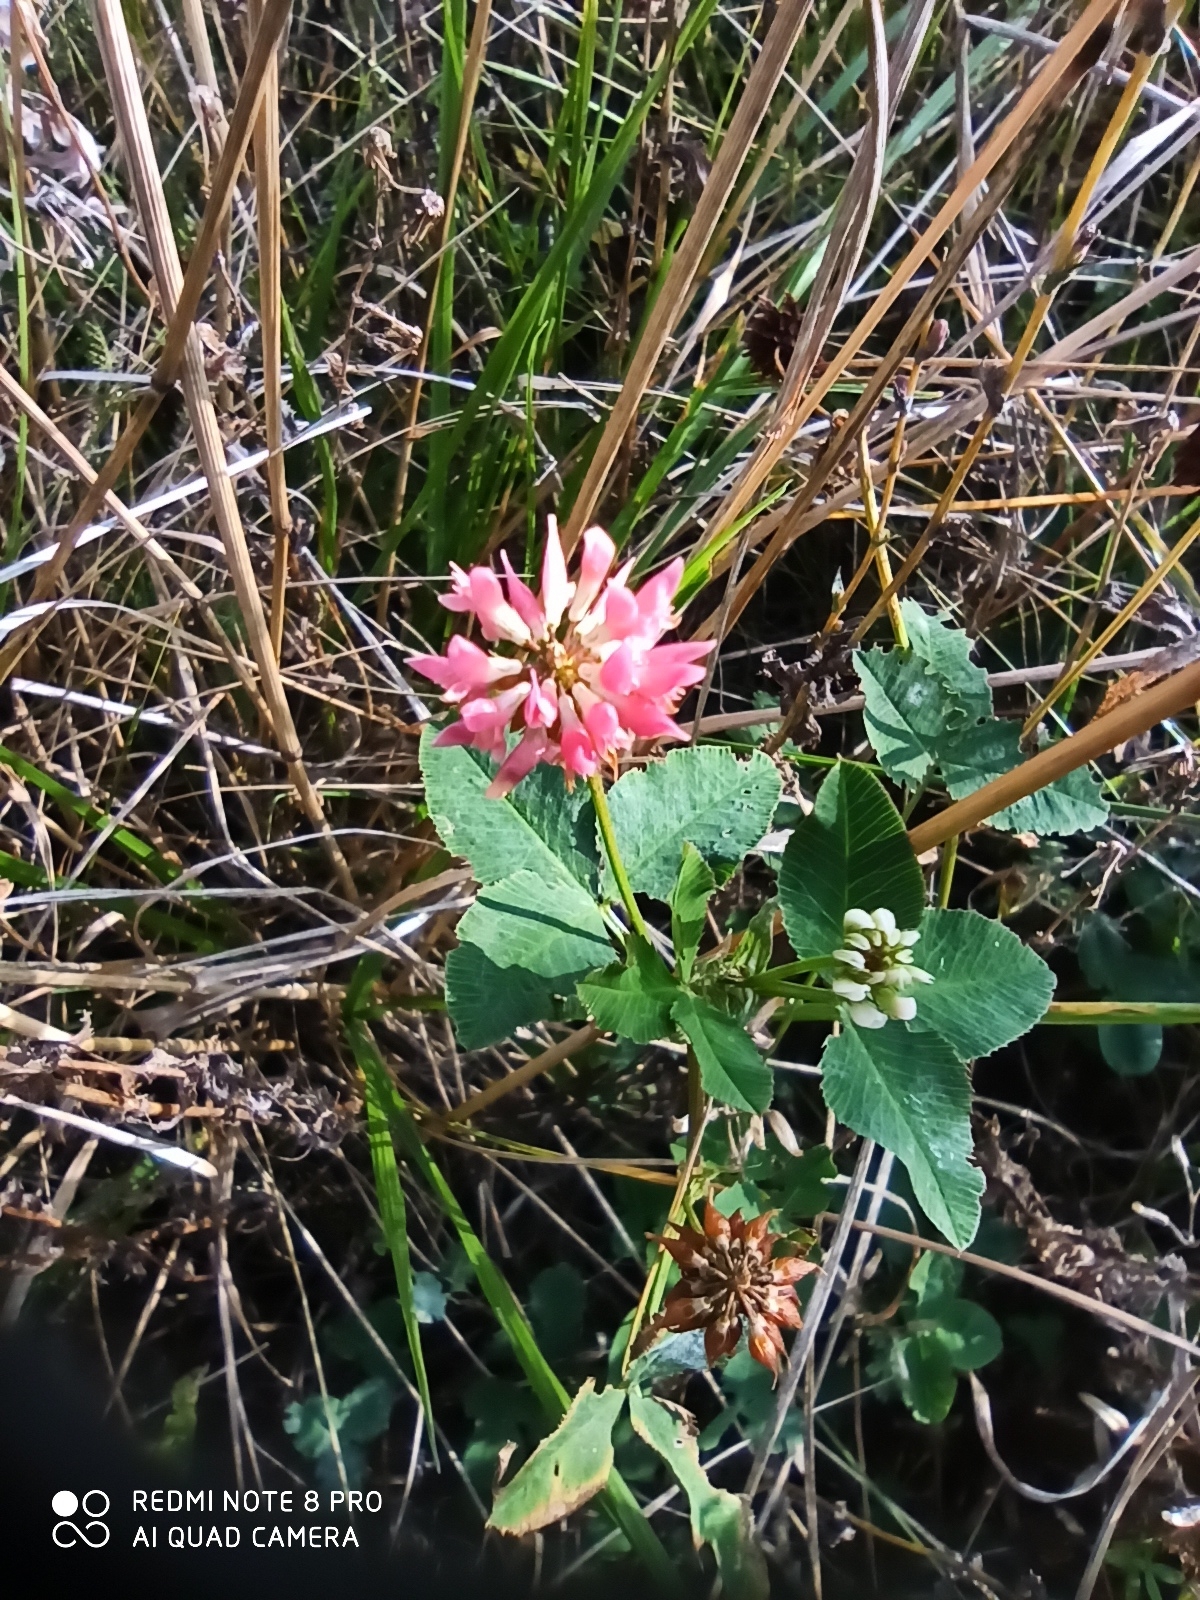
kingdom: Plantae
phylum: Tracheophyta
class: Magnoliopsida
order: Fabales
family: Fabaceae
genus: Trifolium
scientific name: Trifolium hybridum
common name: Alsike clover
